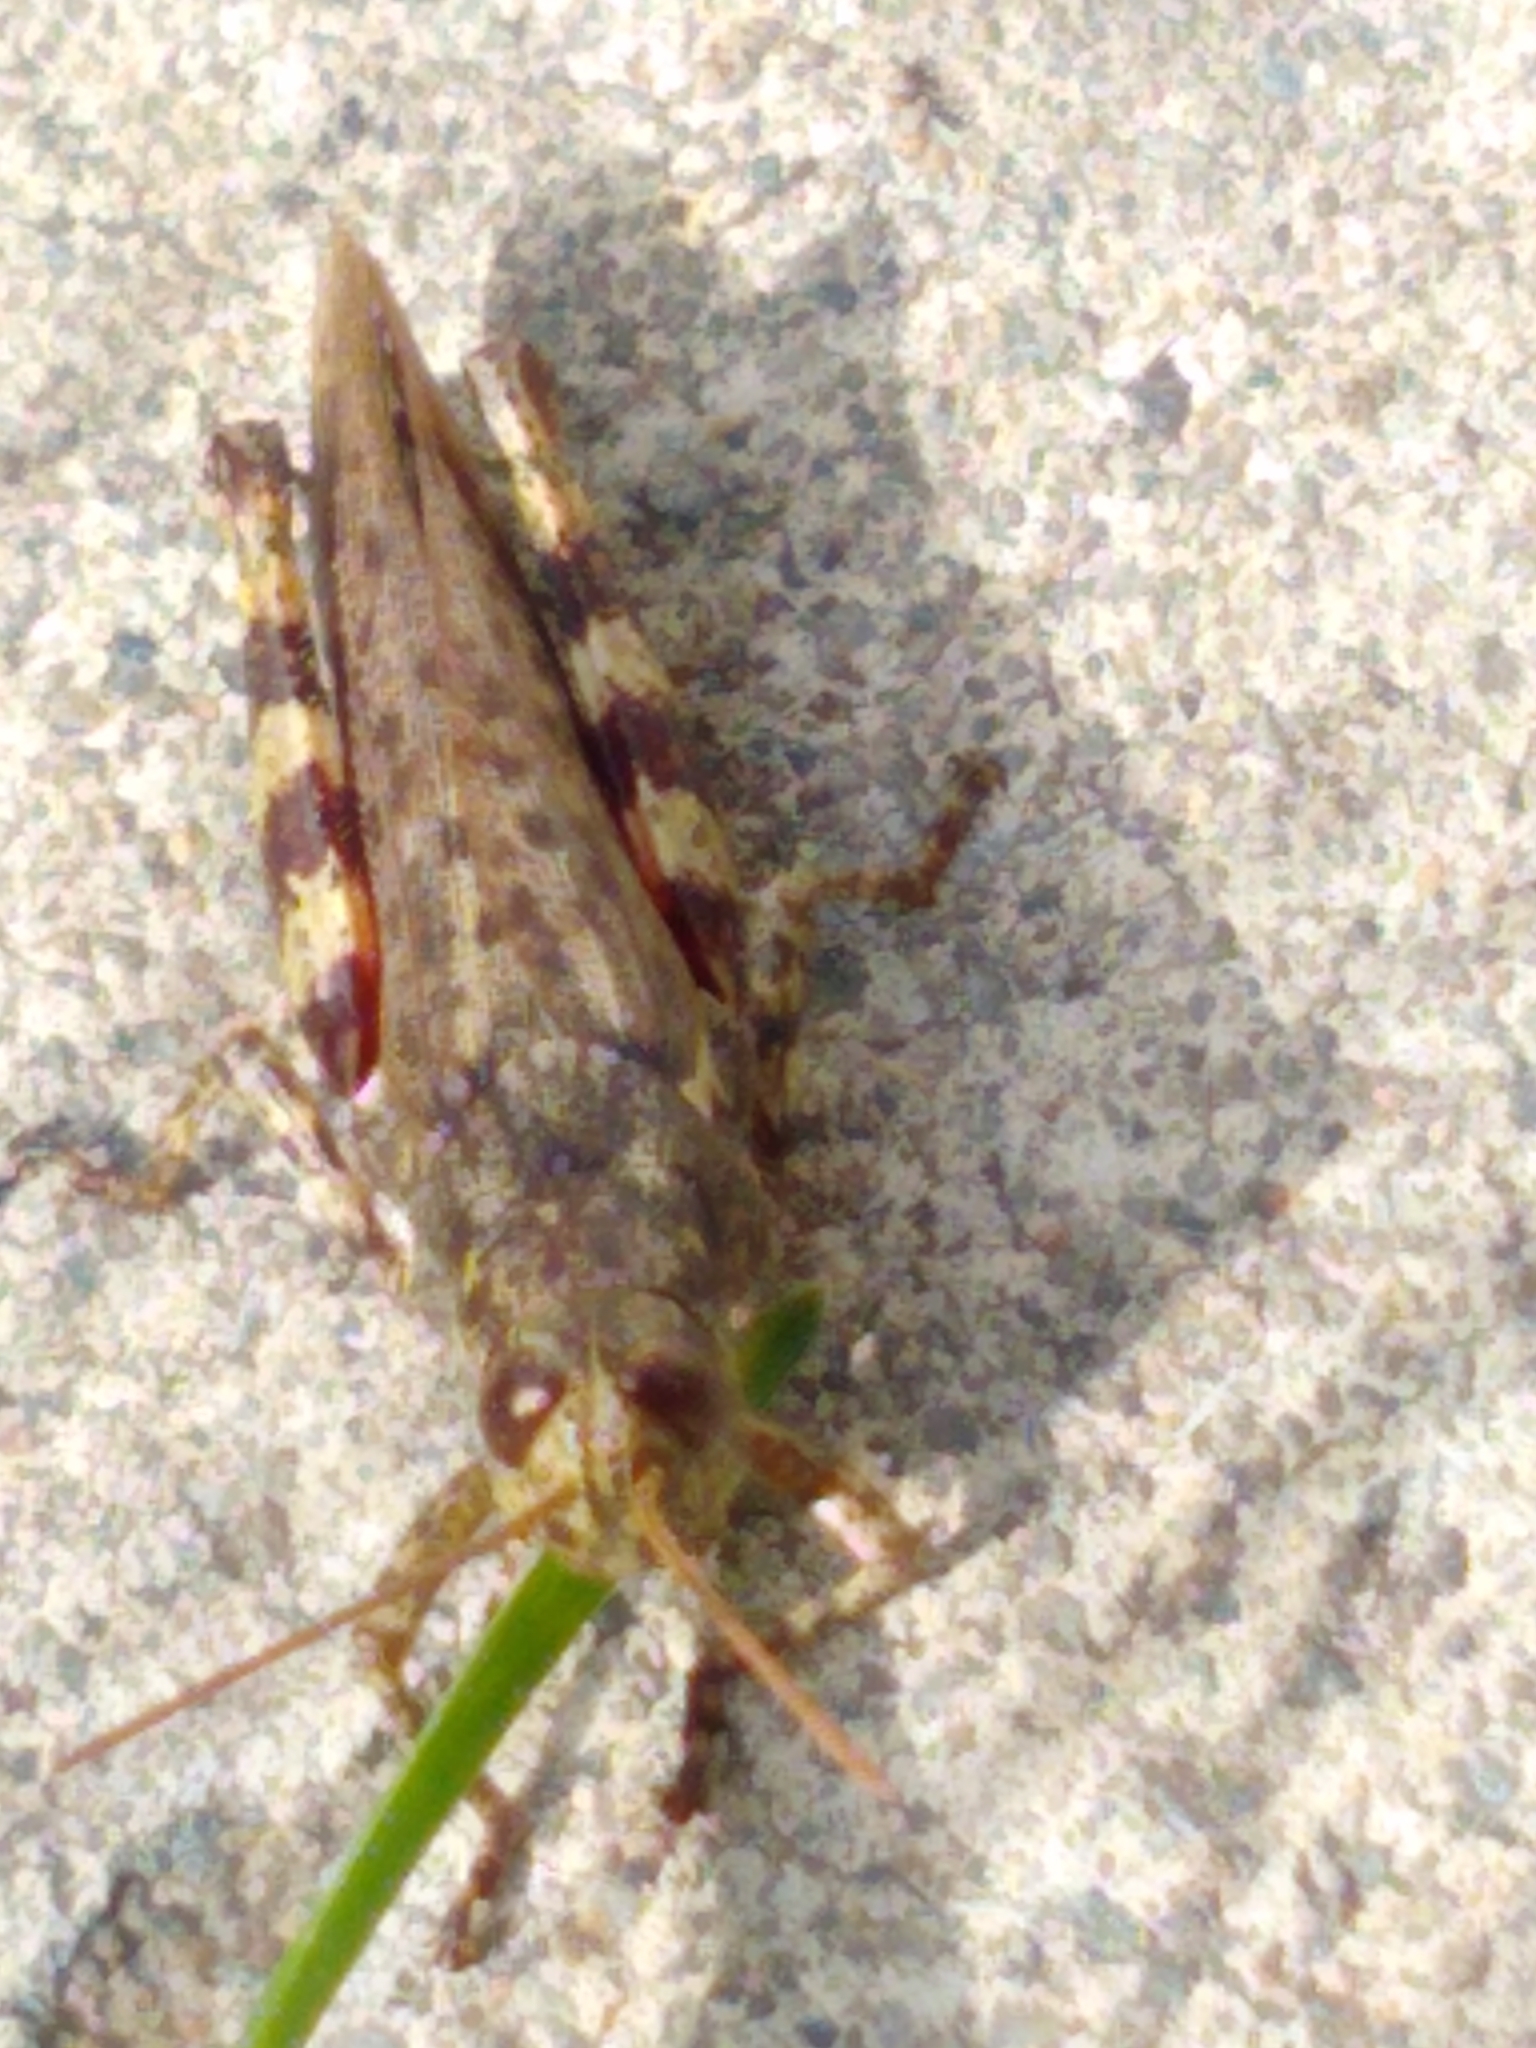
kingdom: Animalia
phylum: Arthropoda
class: Insecta
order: Orthoptera
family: Acrididae
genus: Melanoplus
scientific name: Melanoplus punctulatus
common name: Pine-tree spur-throat grasshopper
